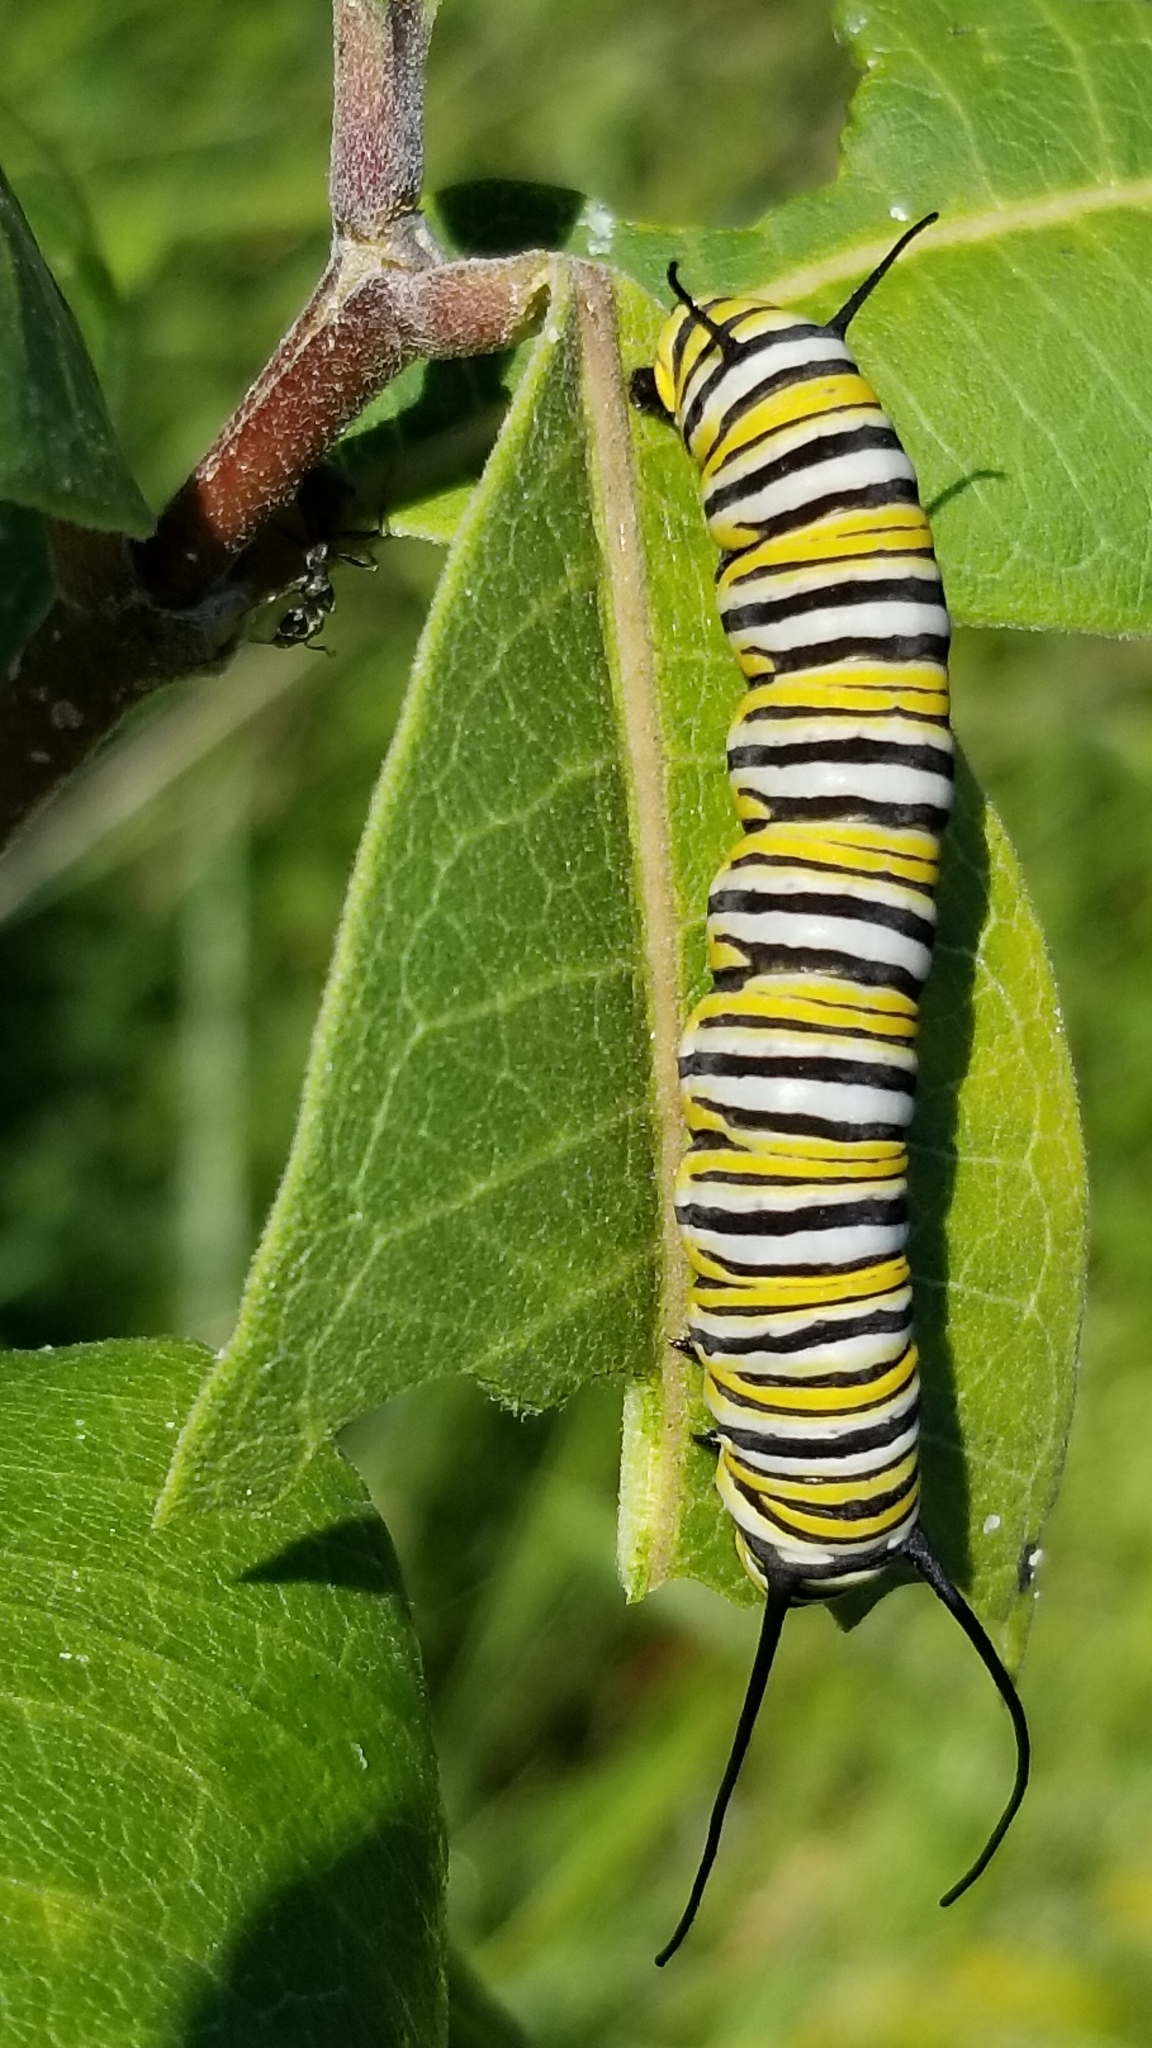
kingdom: Animalia
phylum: Arthropoda
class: Insecta
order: Lepidoptera
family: Nymphalidae
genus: Danaus
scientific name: Danaus plexippus
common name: Monarch
